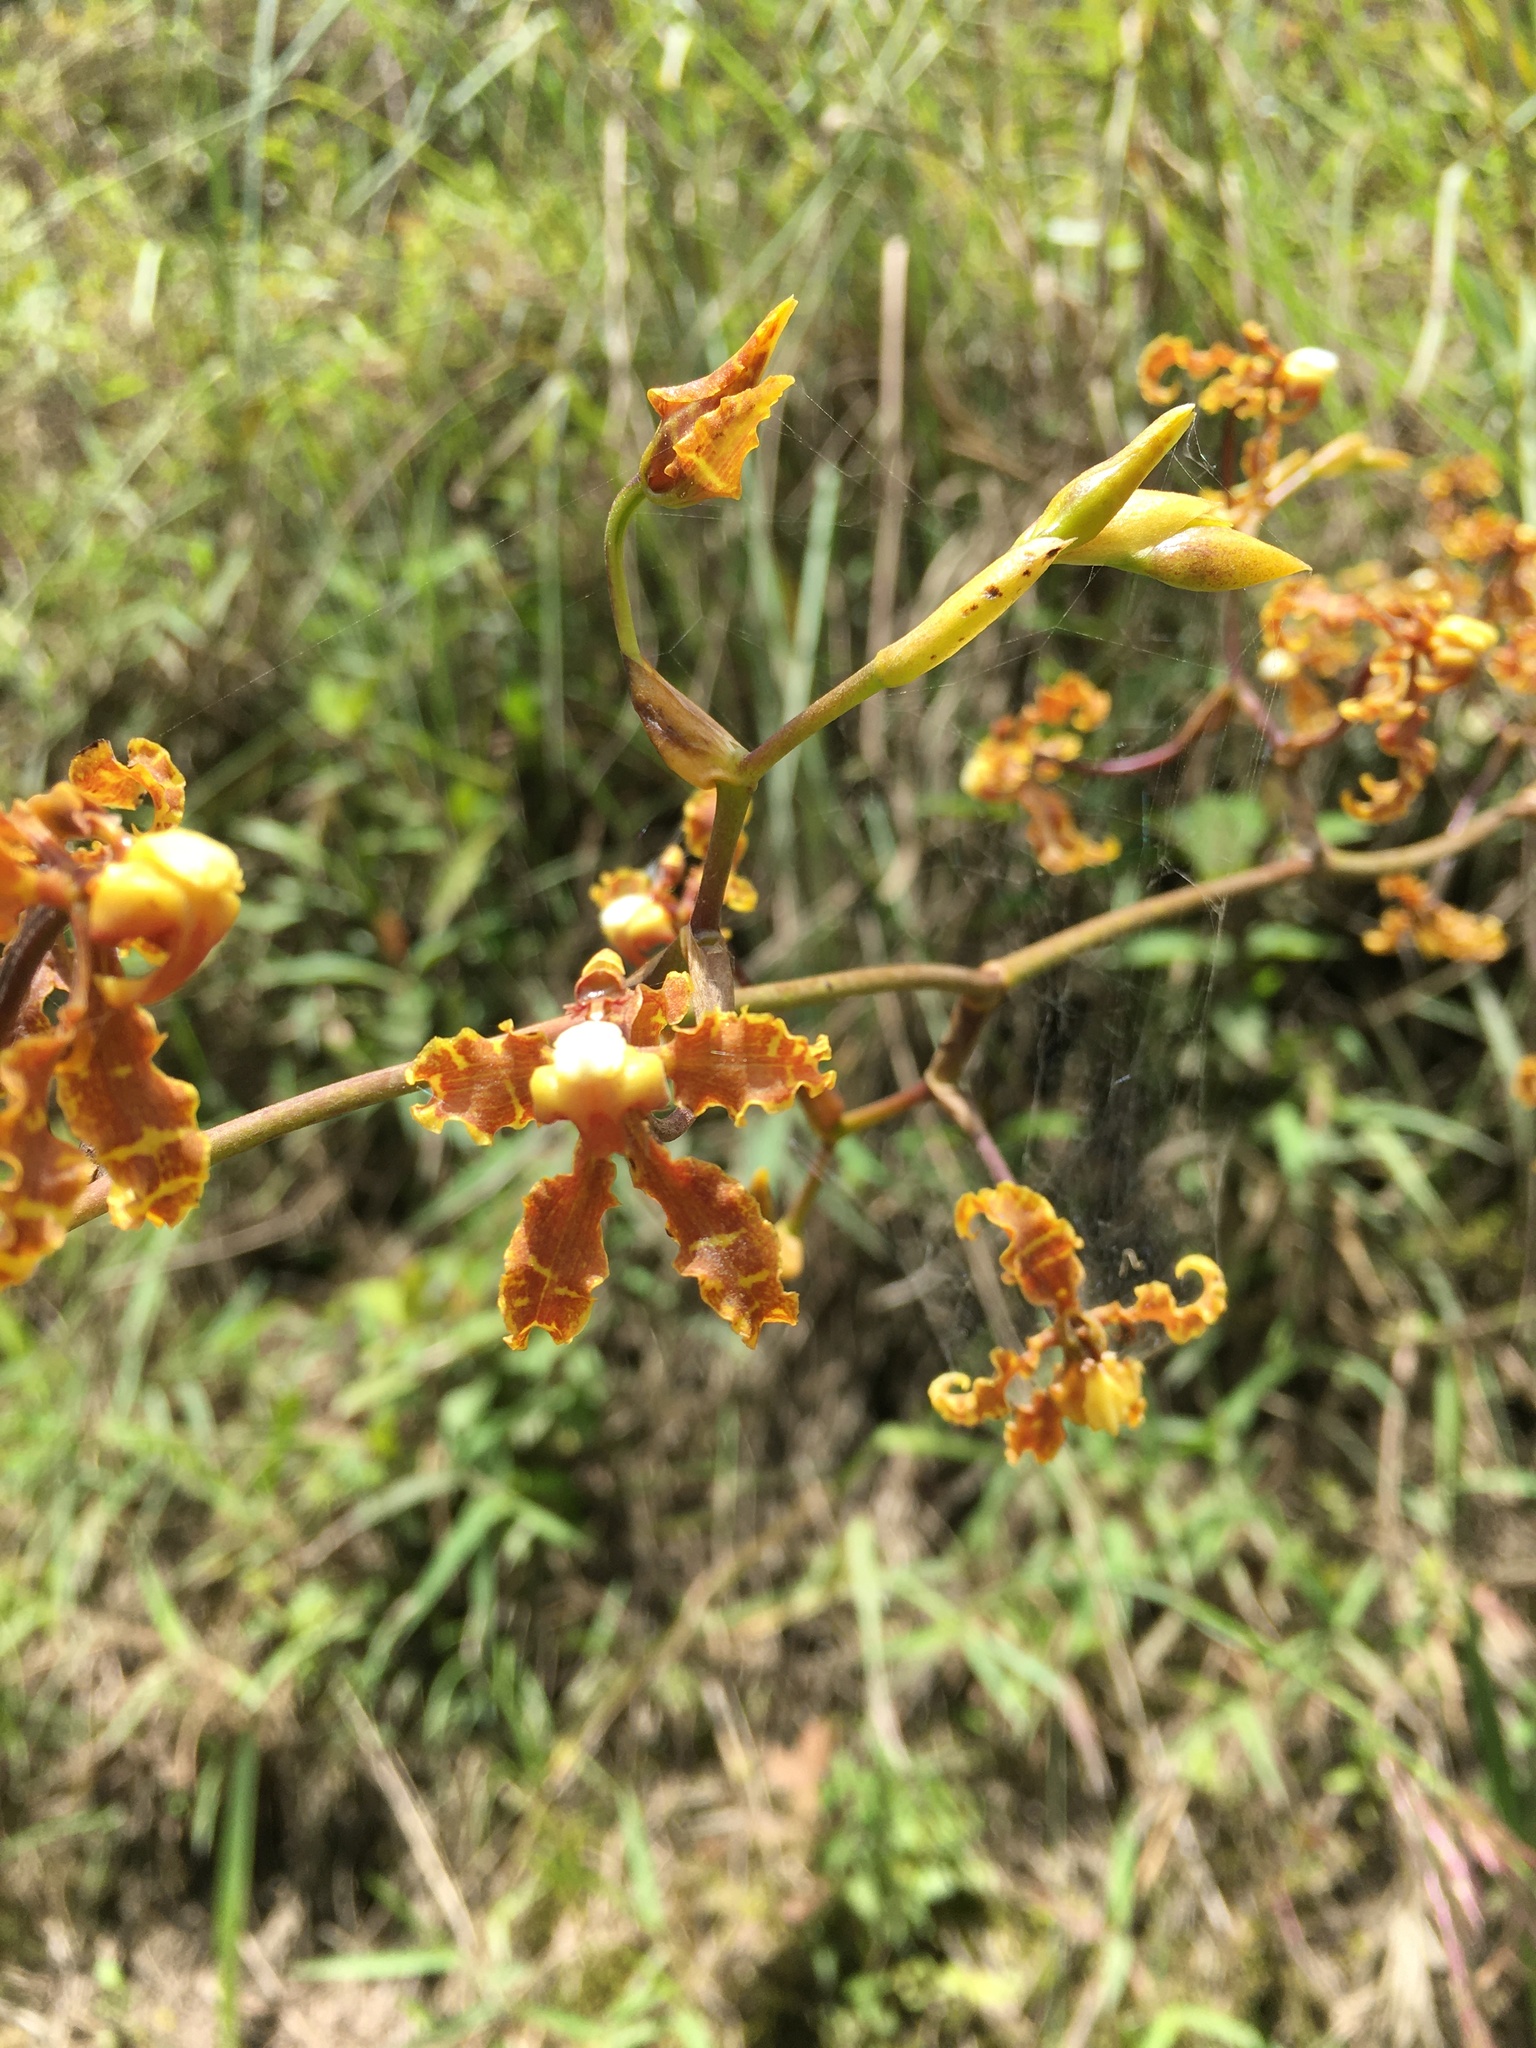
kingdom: Plantae
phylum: Tracheophyta
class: Liliopsida
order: Asparagales
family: Orchidaceae
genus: Cyrtochilum
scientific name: Cyrtochilum divaricatum
